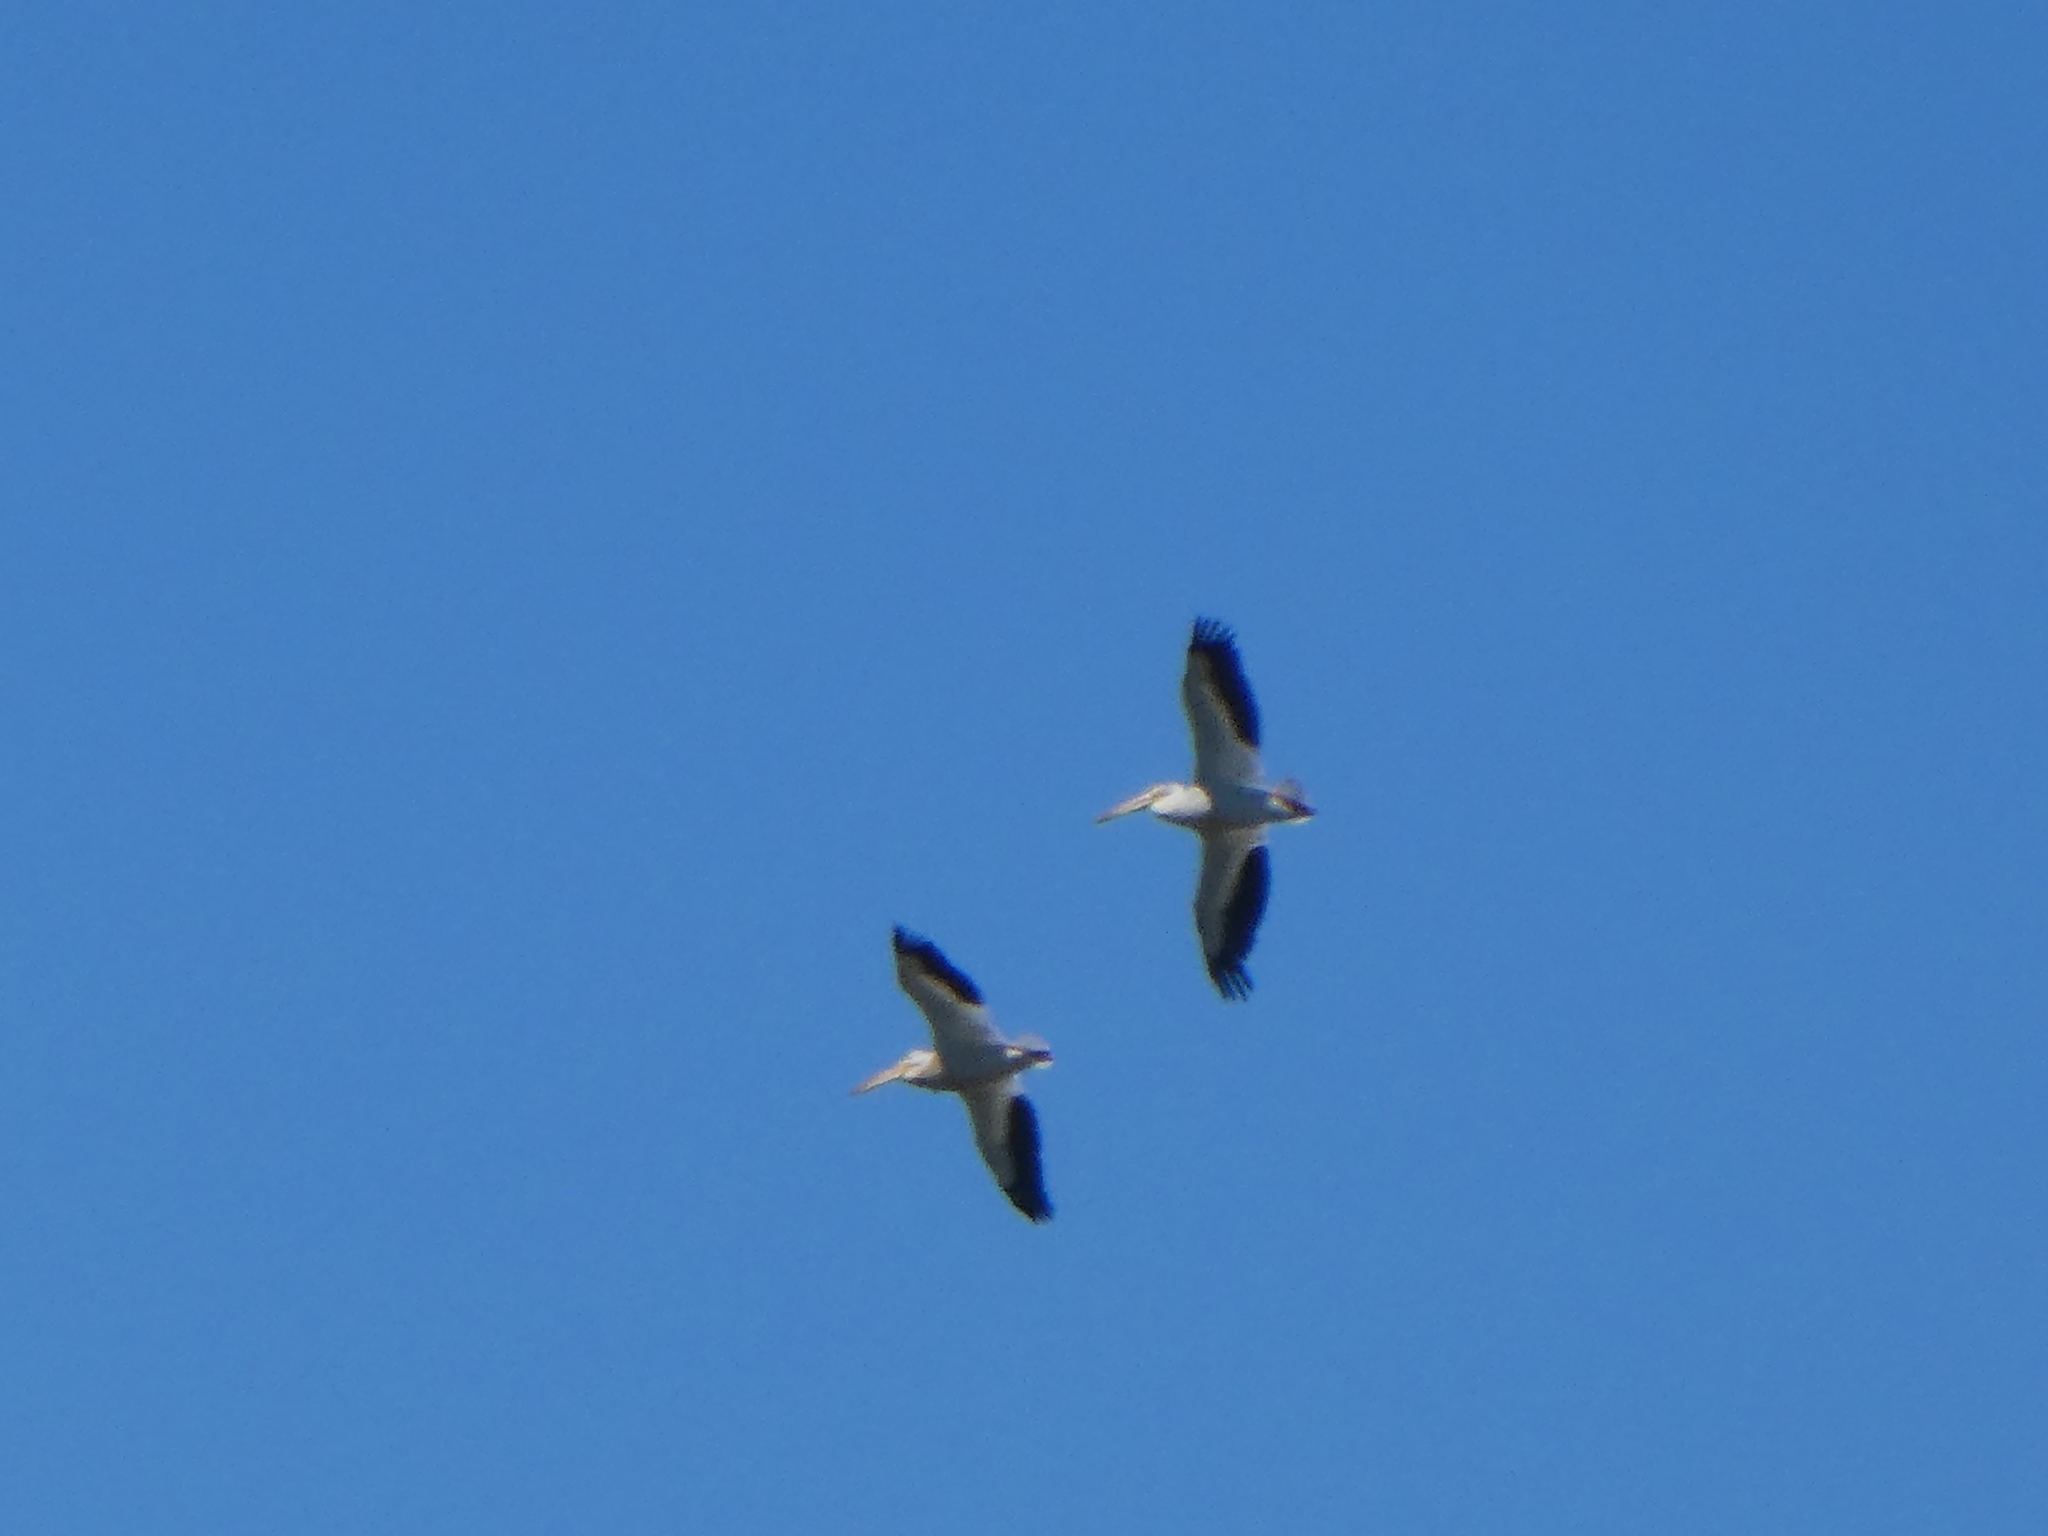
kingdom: Animalia
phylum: Chordata
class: Aves
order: Pelecaniformes
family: Pelecanidae
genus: Pelecanus
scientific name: Pelecanus erythrorhynchos
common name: American white pelican
